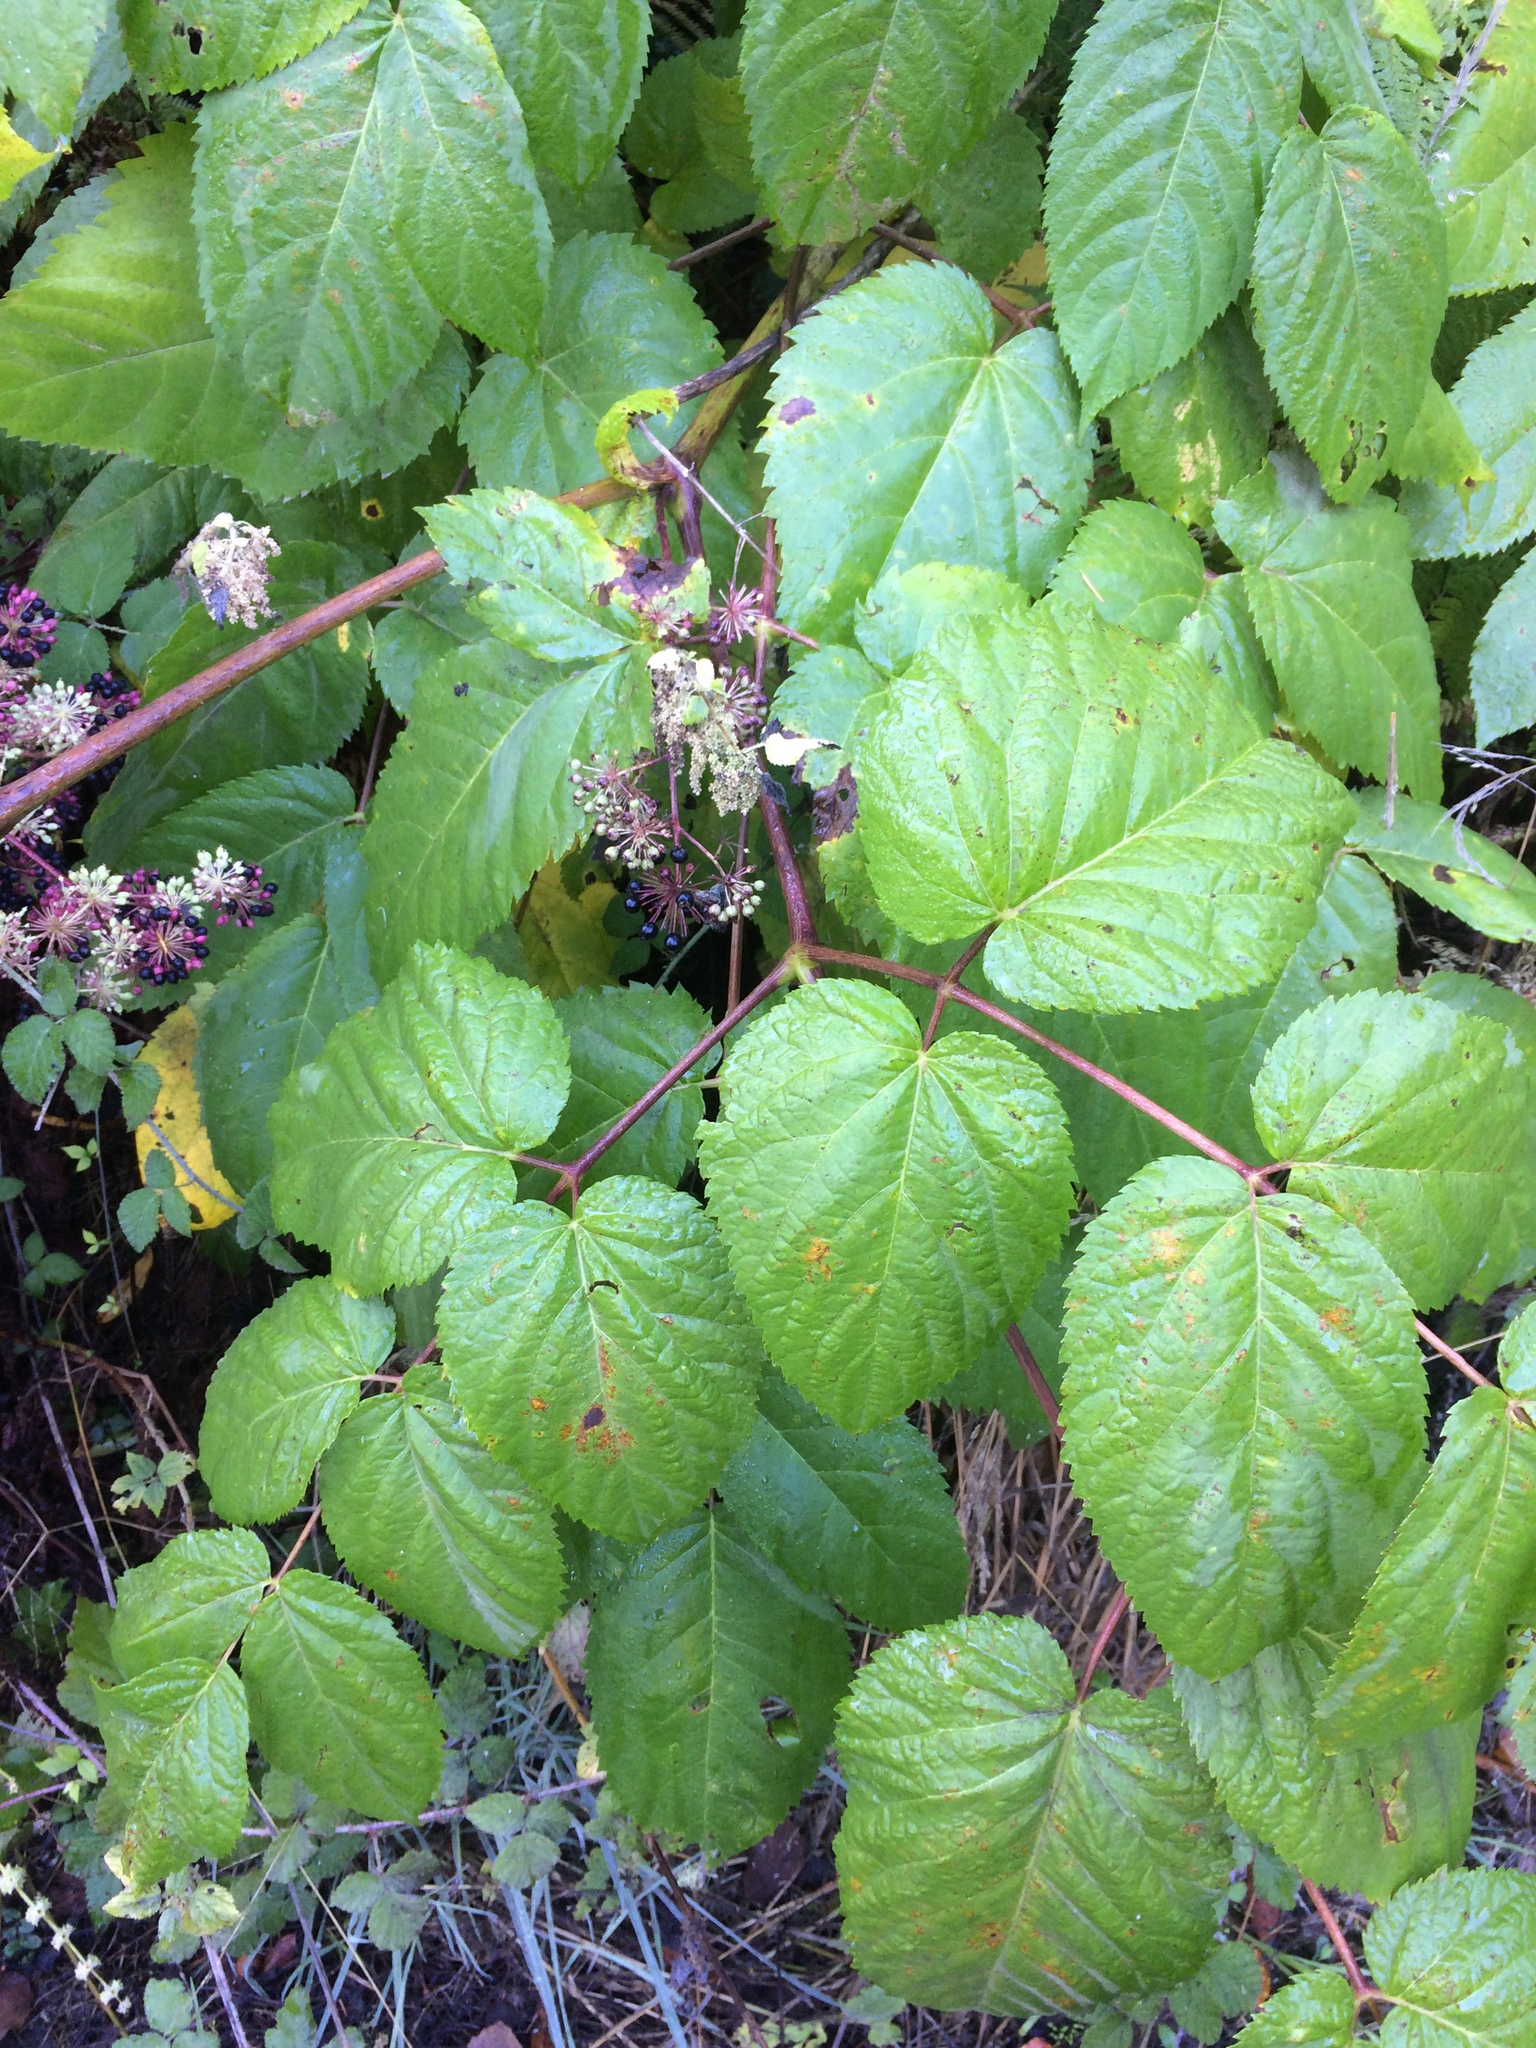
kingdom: Plantae
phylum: Tracheophyta
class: Magnoliopsida
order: Apiales
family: Araliaceae
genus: Aralia
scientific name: Aralia californica
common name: California-ginseng
